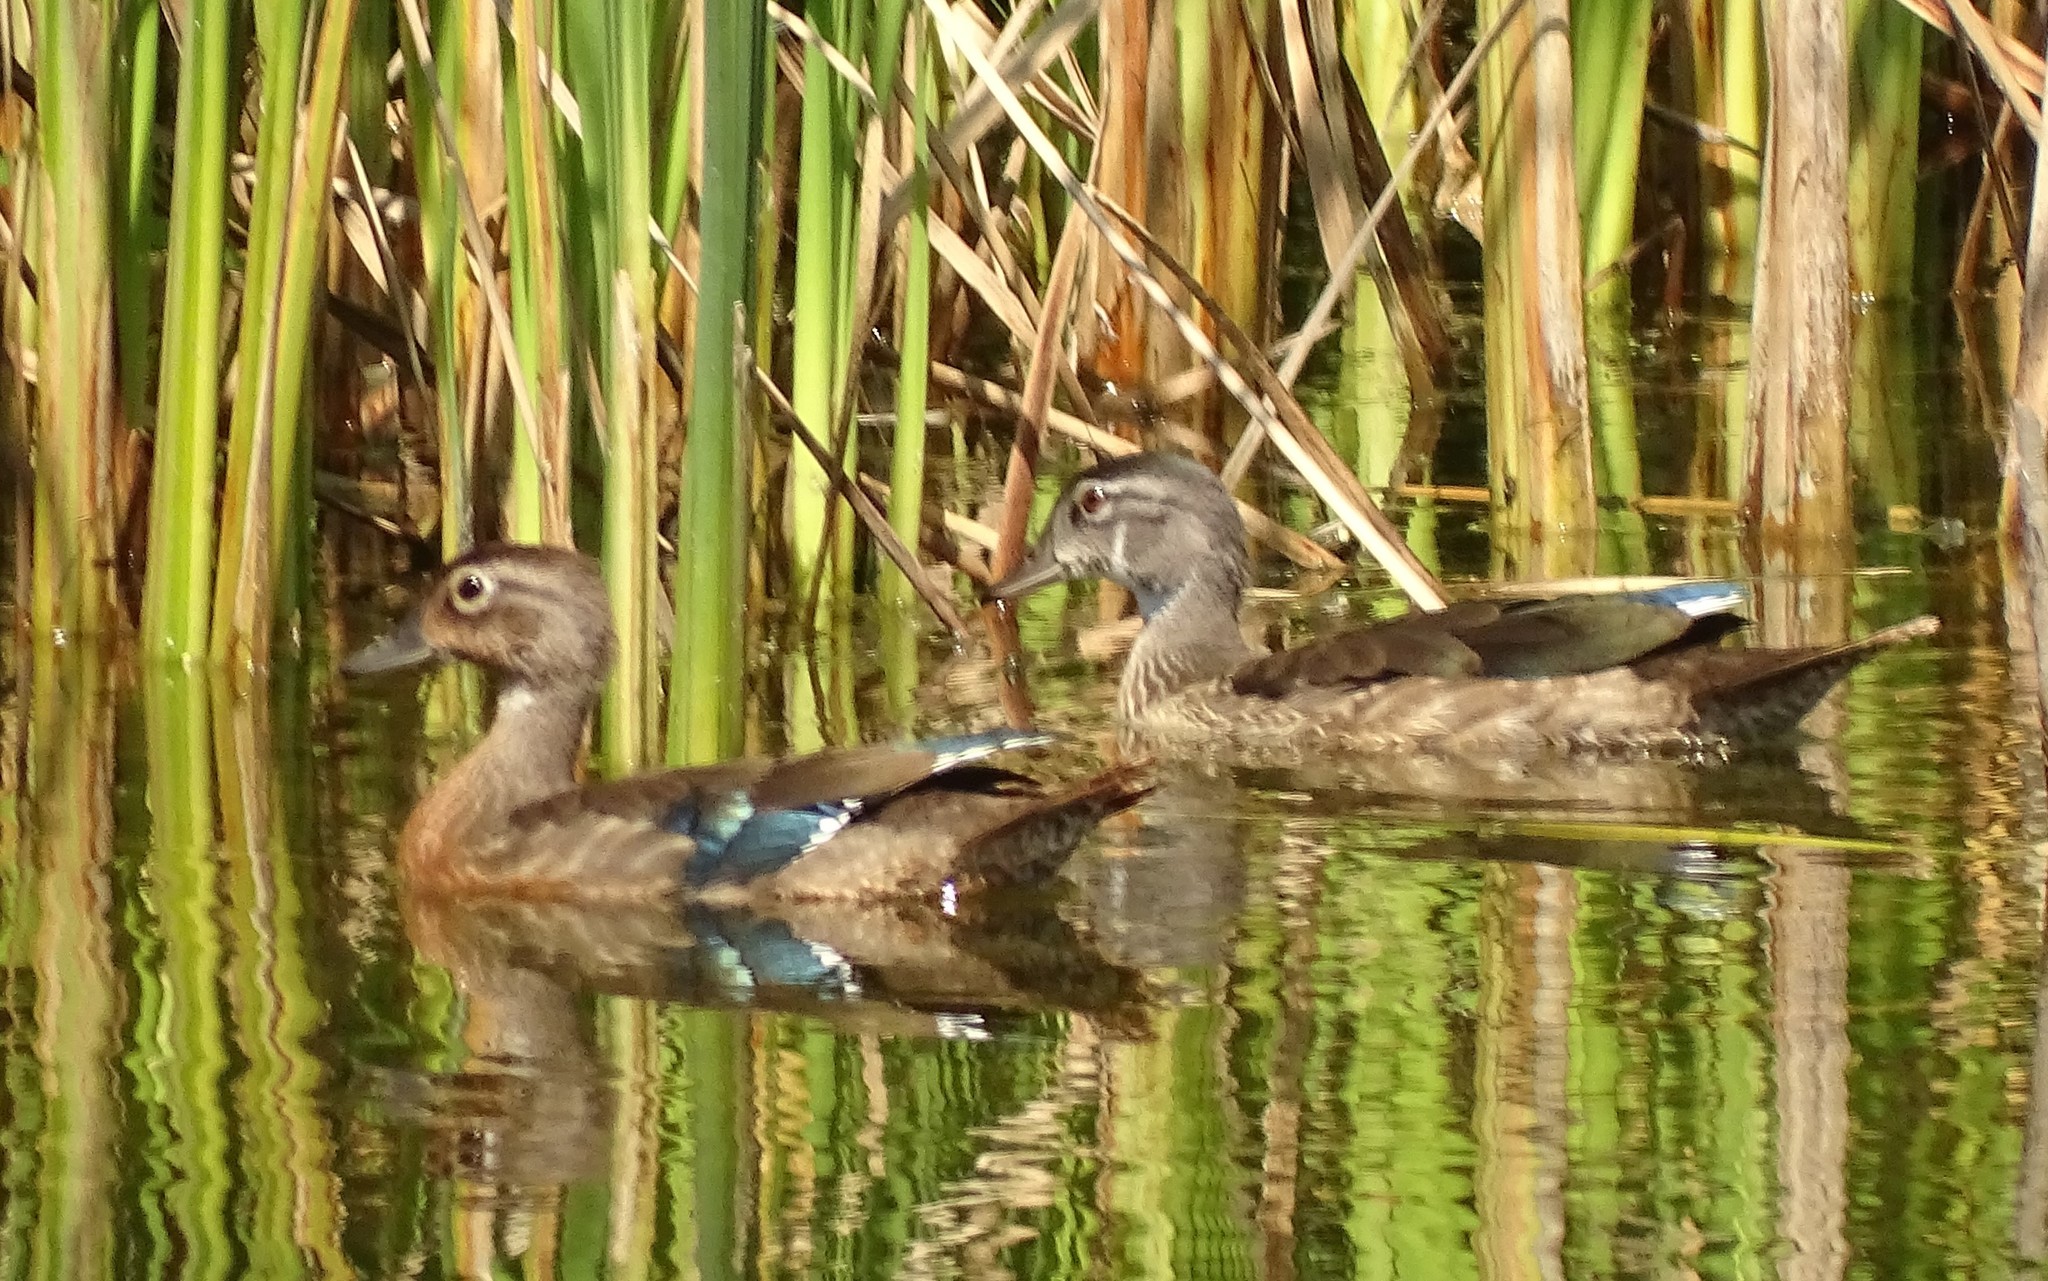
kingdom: Animalia
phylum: Chordata
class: Aves
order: Anseriformes
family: Anatidae
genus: Aix
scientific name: Aix sponsa
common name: Wood duck
